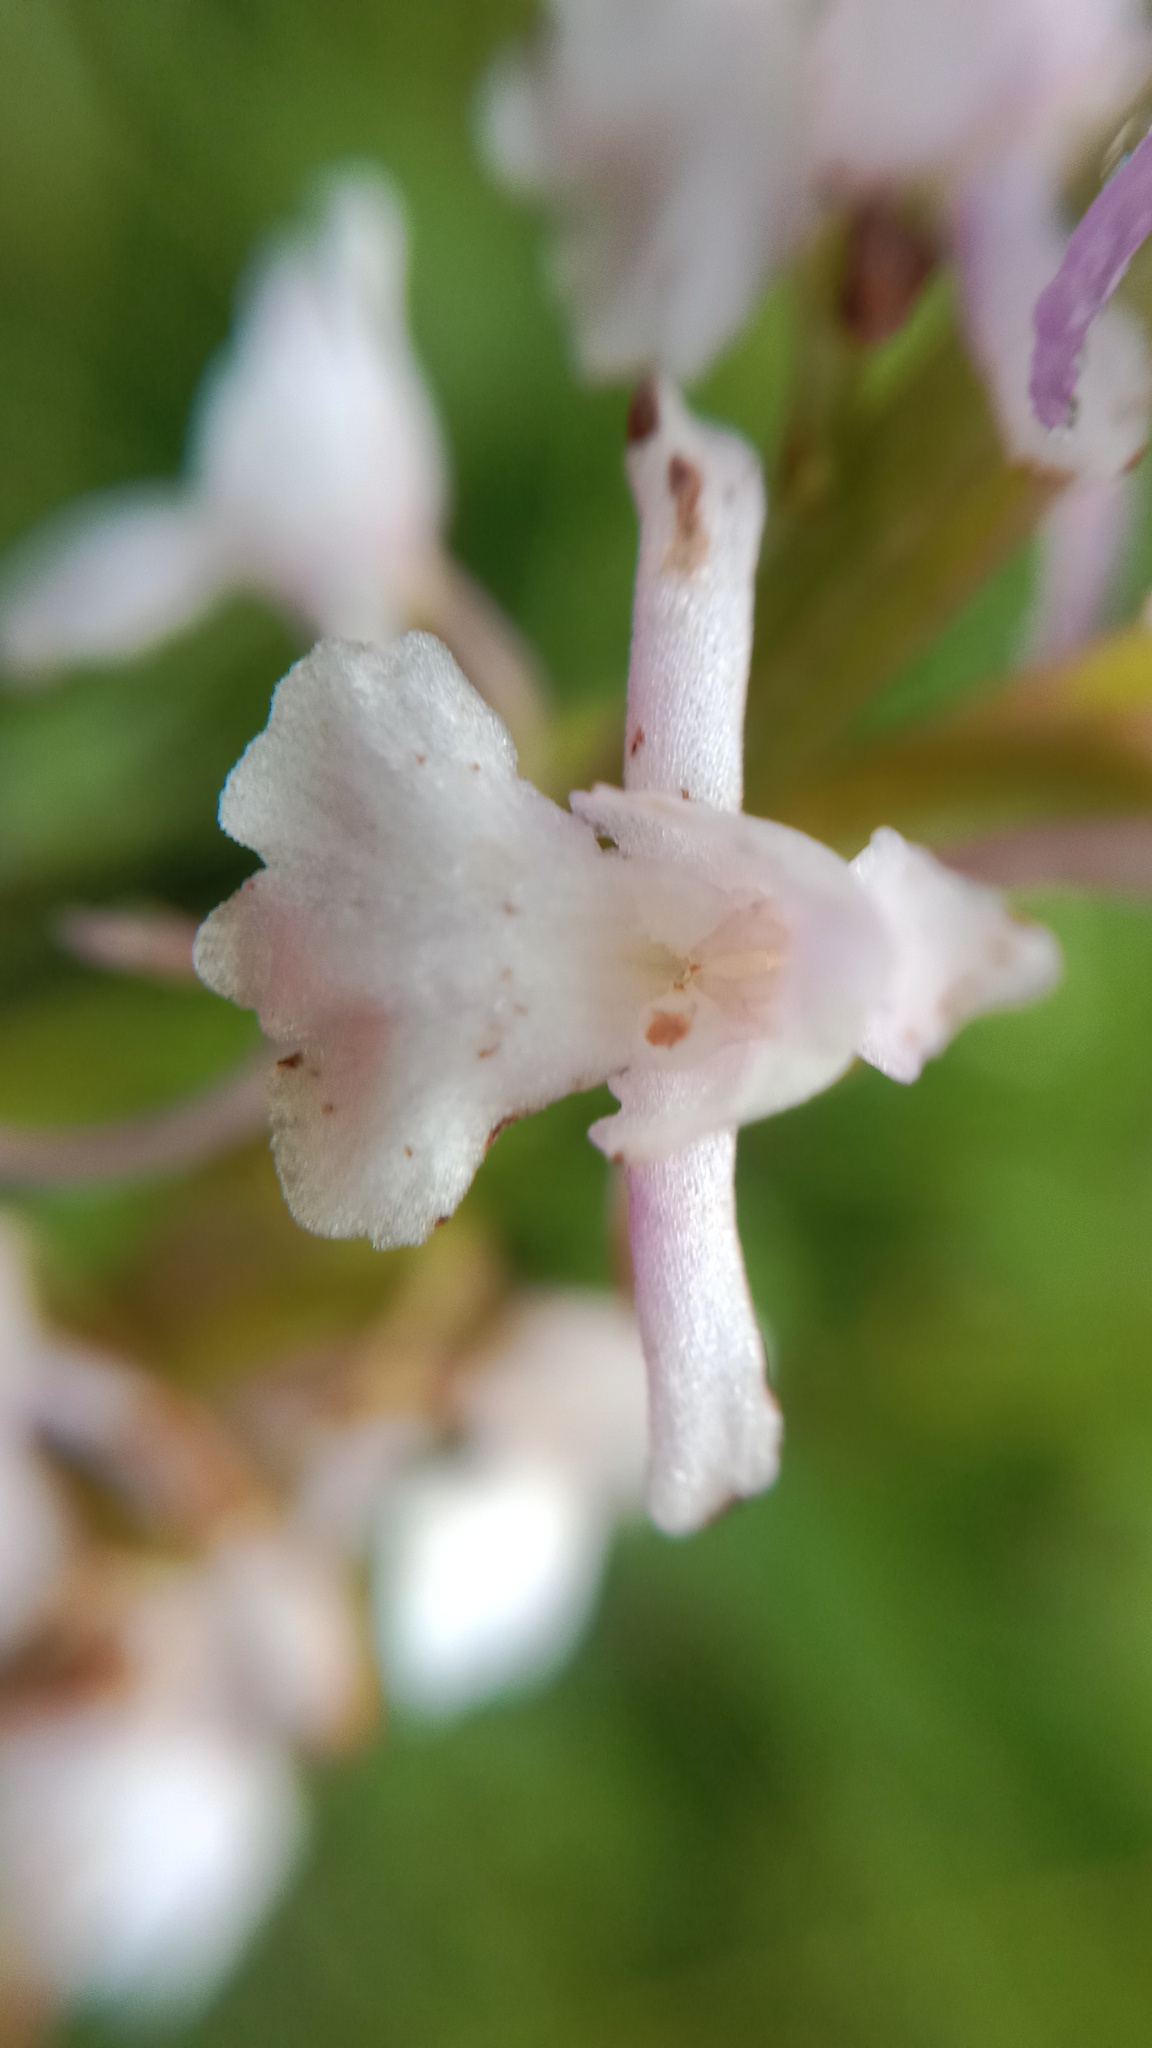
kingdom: Plantae
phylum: Tracheophyta
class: Liliopsida
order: Asparagales
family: Orchidaceae
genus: Gymnadenia
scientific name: Gymnadenia conopsea
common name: Fragrant orchid
